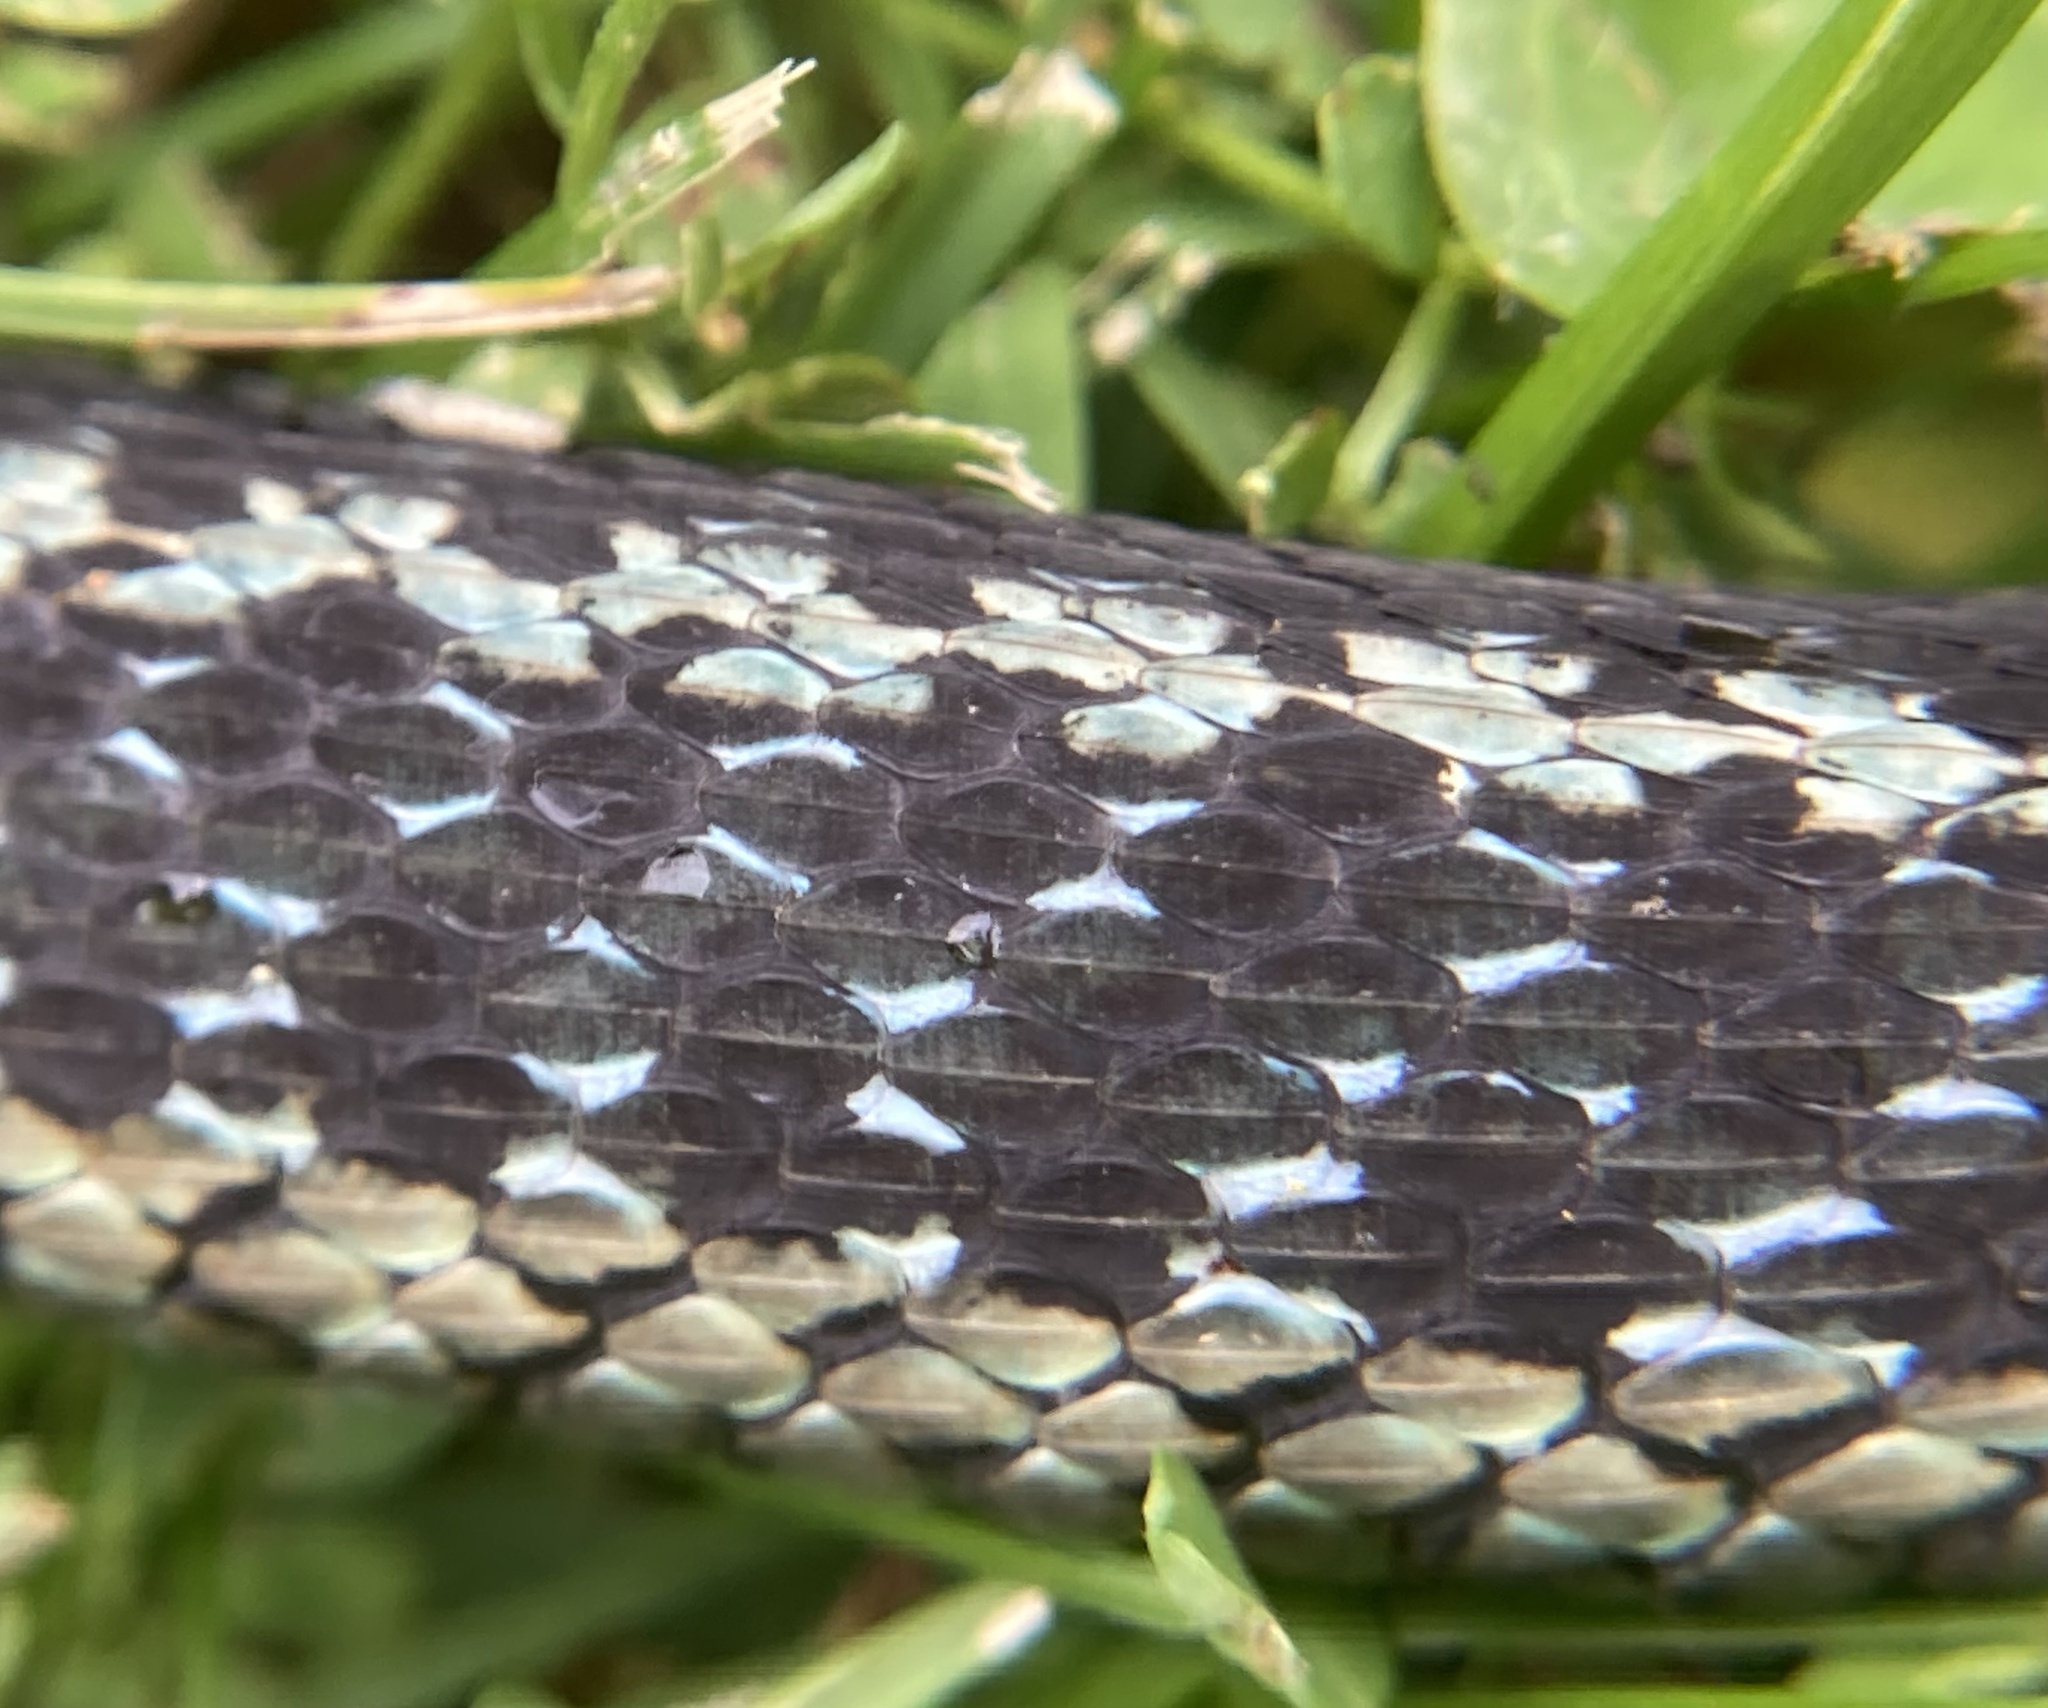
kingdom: Animalia
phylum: Chordata
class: Squamata
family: Colubridae
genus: Thamnophis
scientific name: Thamnophis sirtalis
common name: Common garter snake
